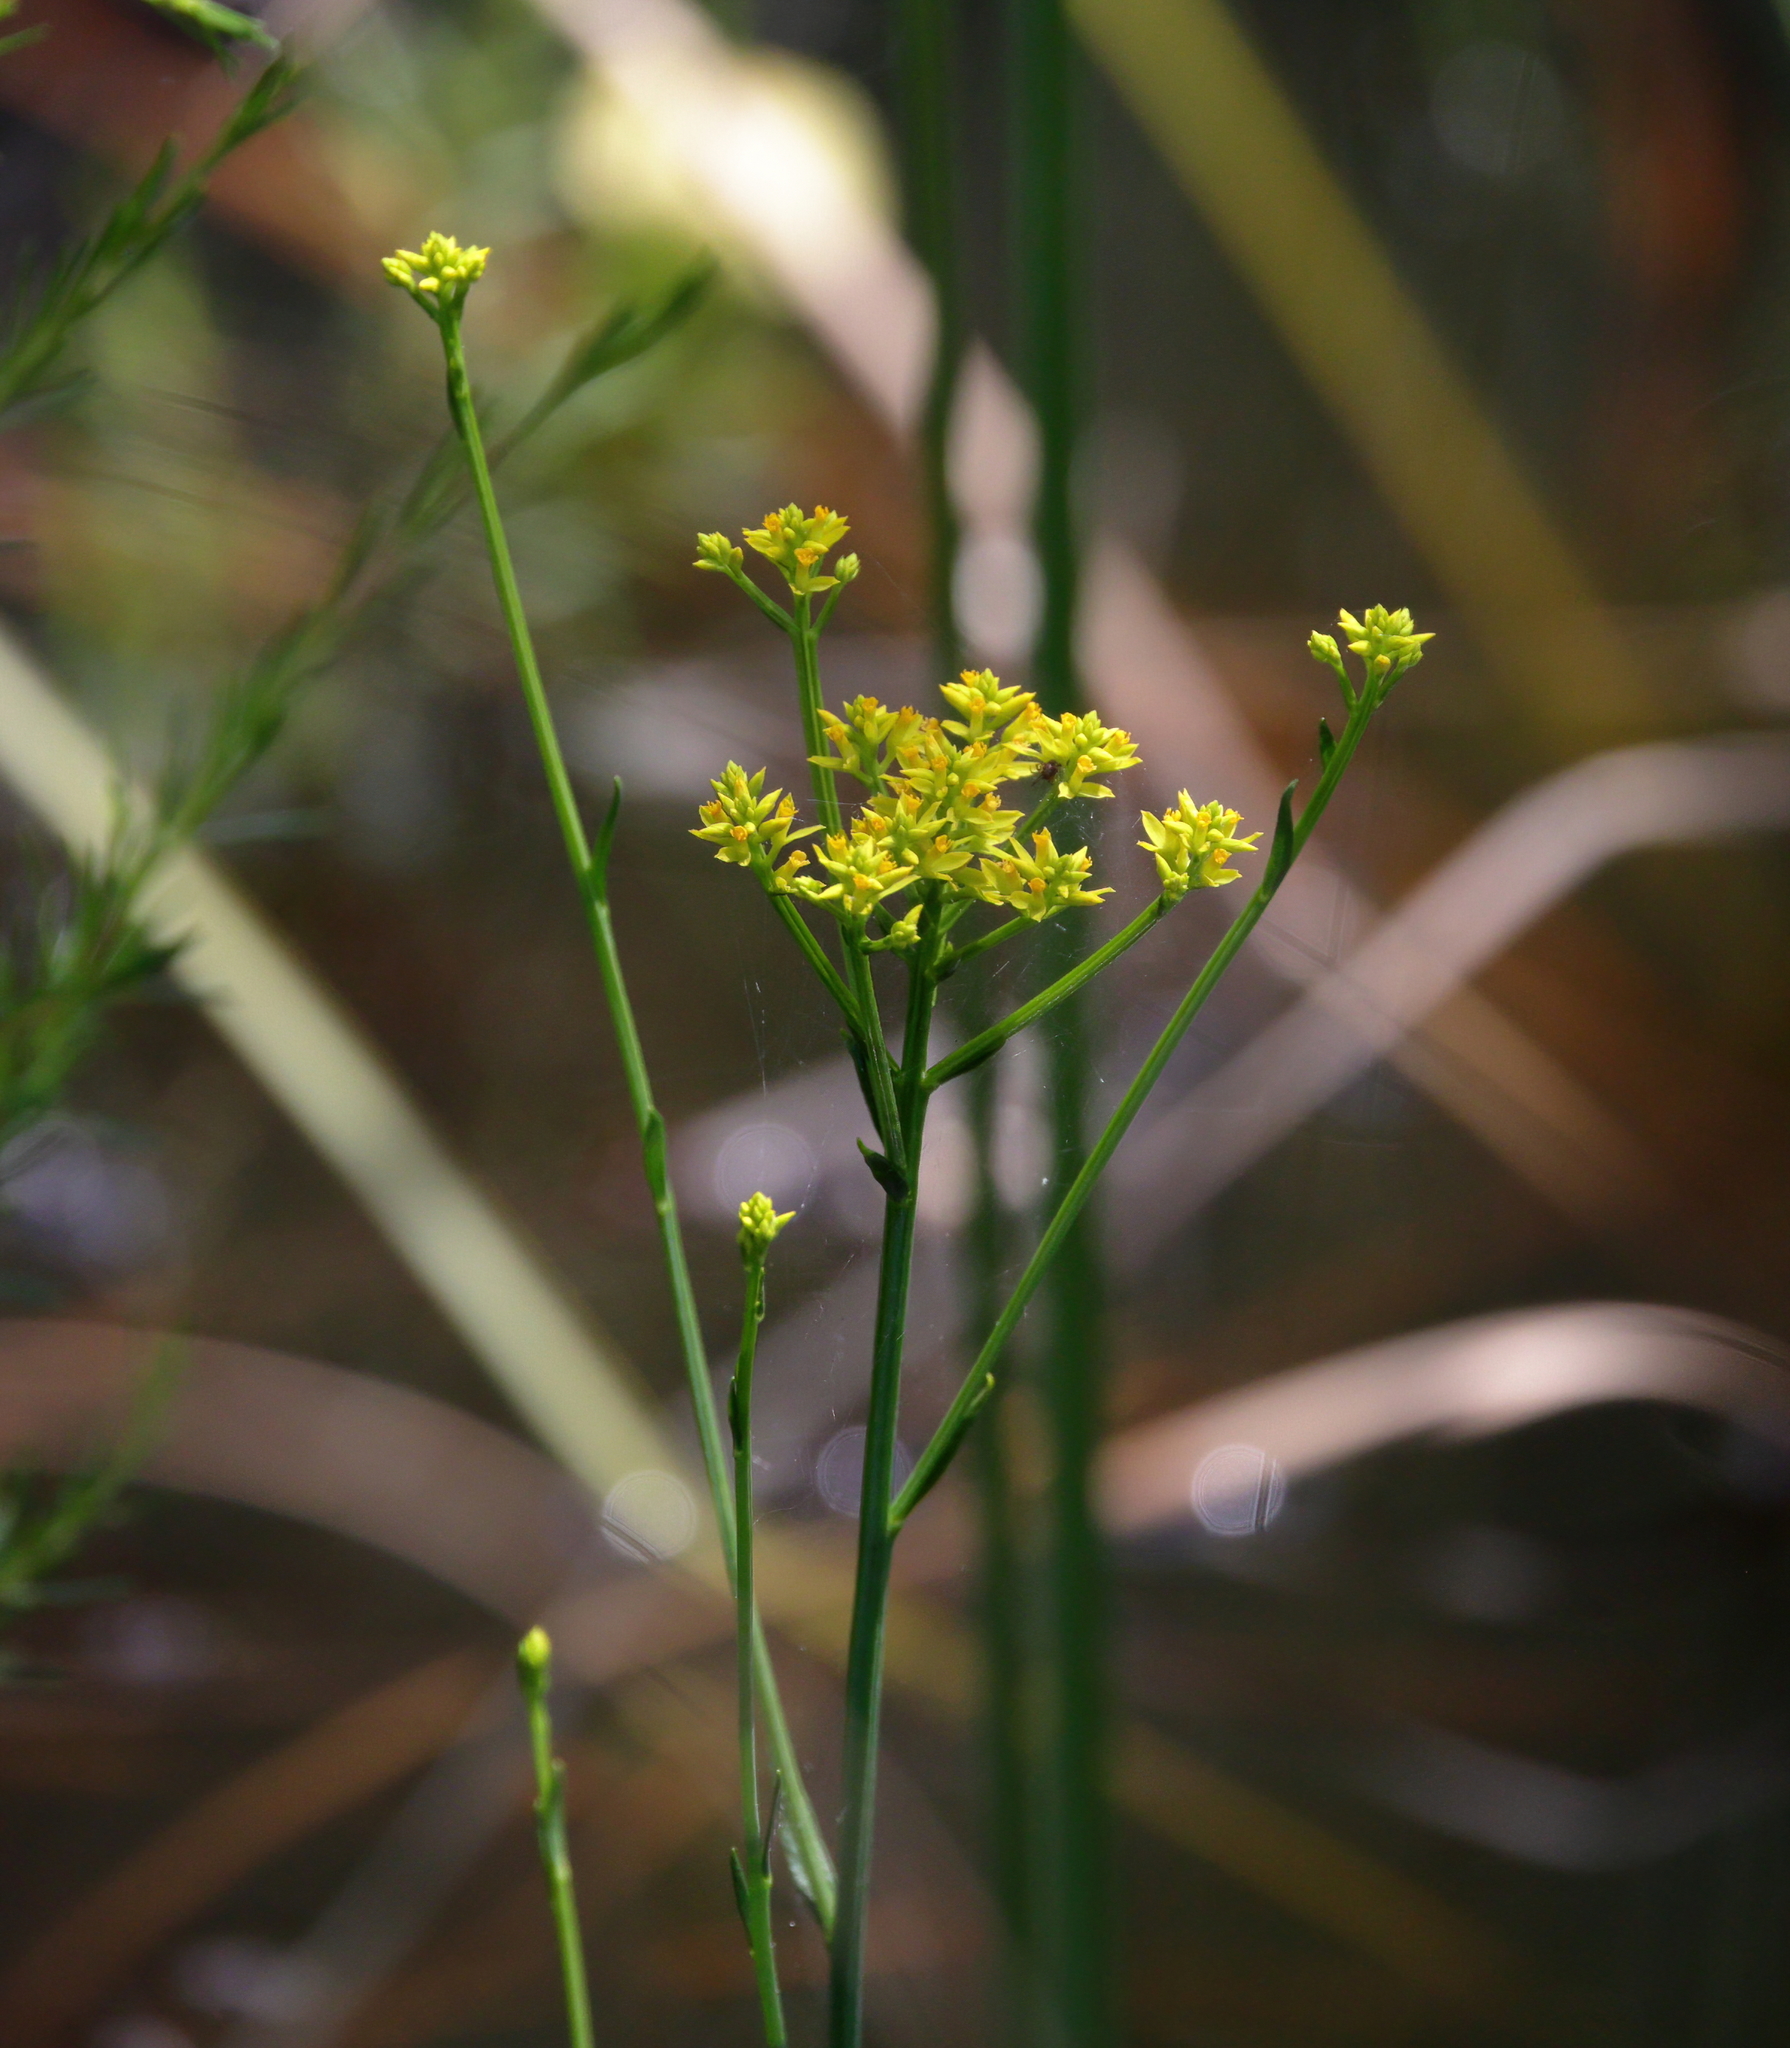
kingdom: Plantae
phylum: Tracheophyta
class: Magnoliopsida
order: Fabales
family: Polygalaceae
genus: Polygala
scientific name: Polygala cymosa
